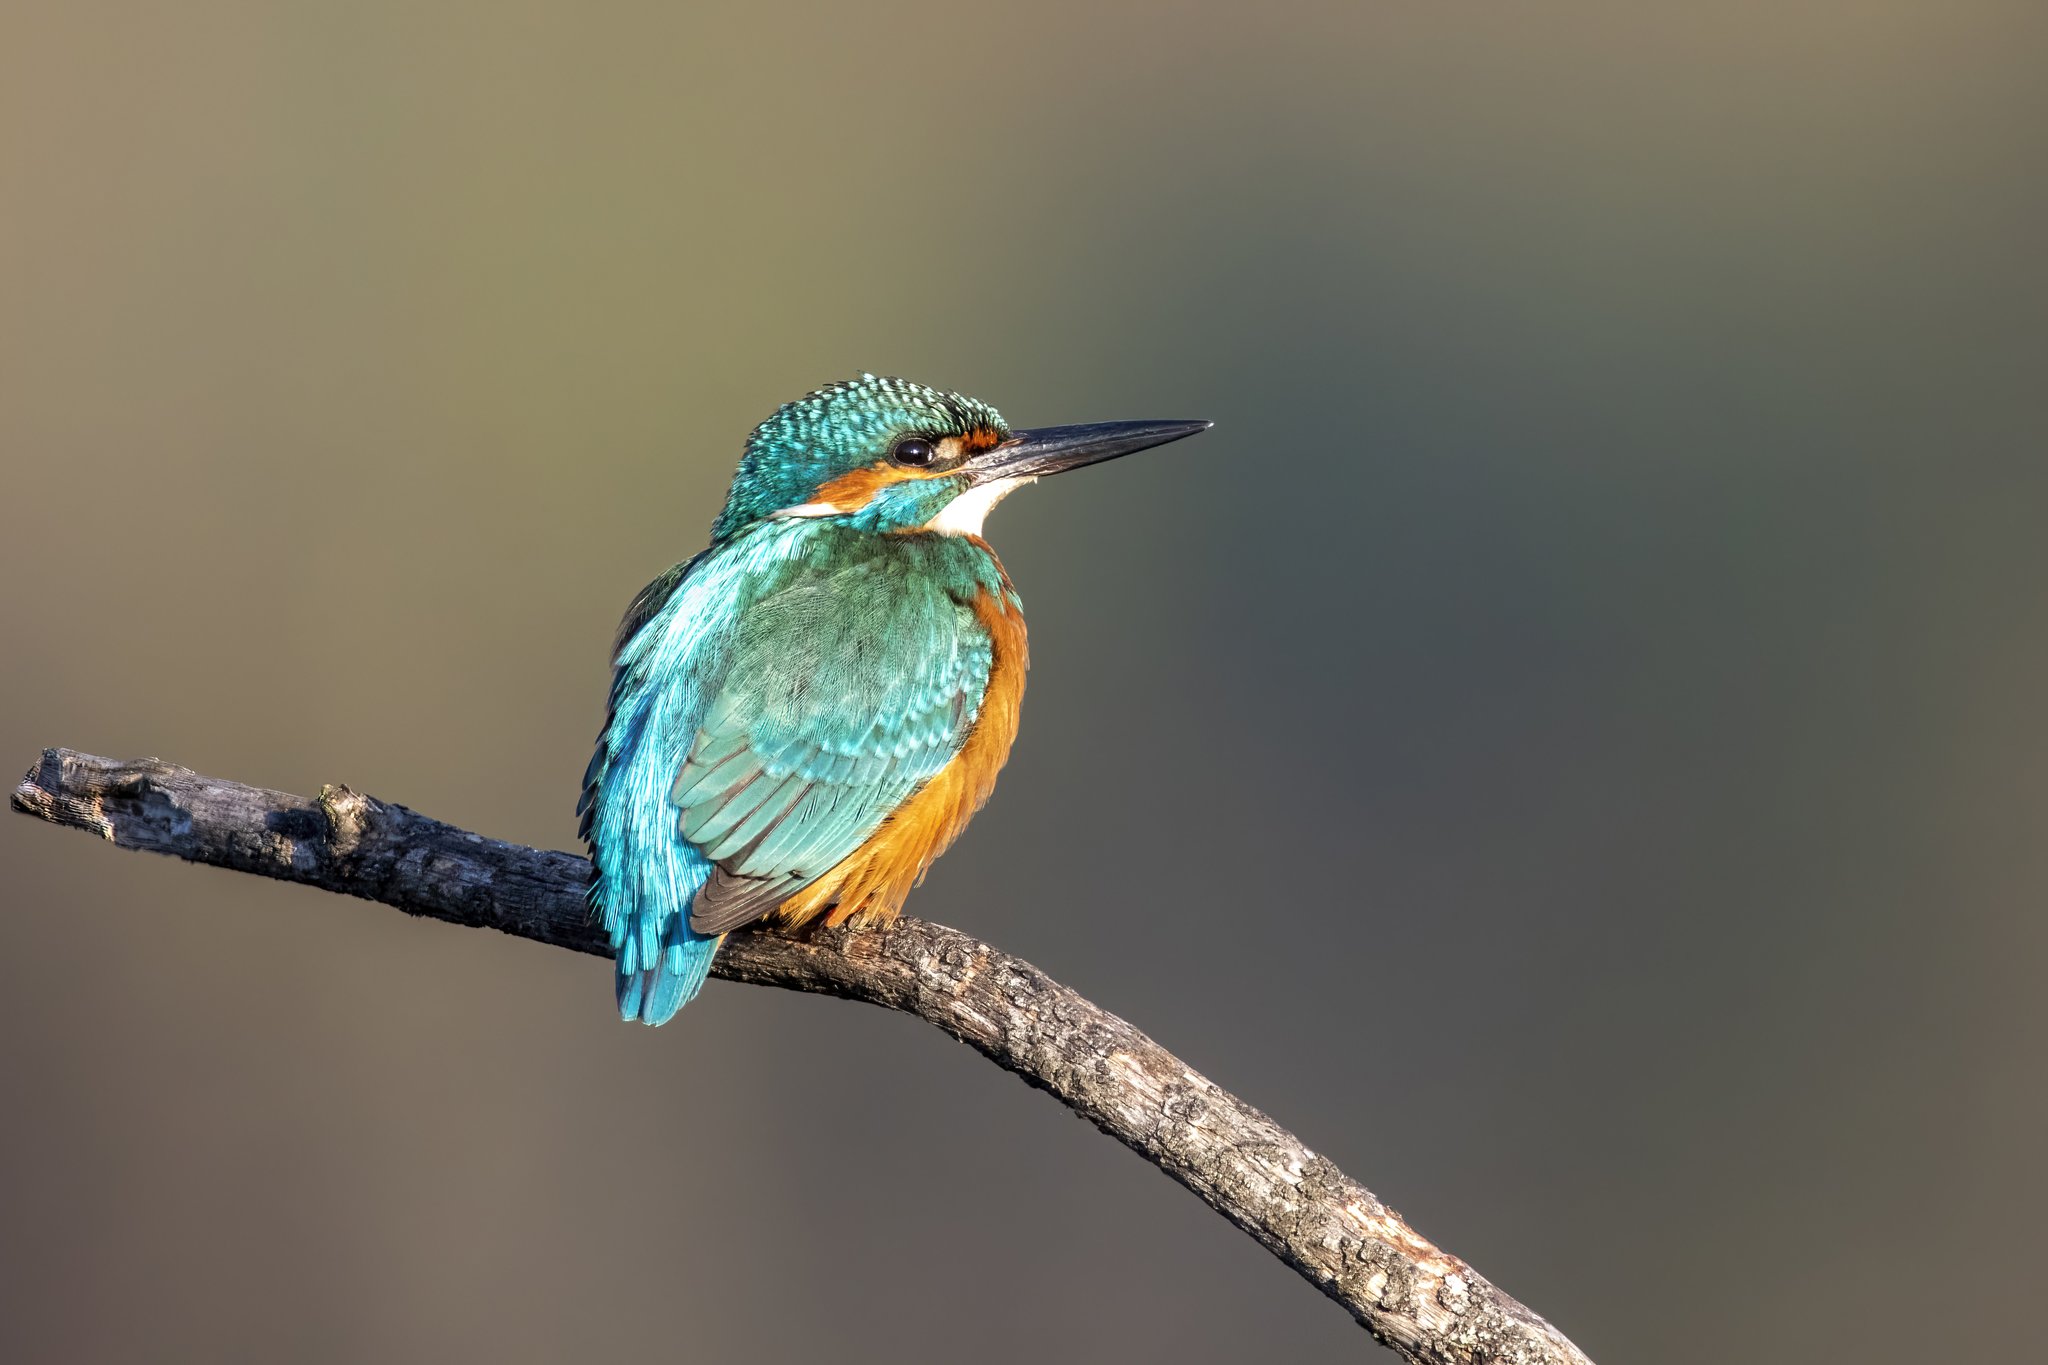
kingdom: Animalia
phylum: Chordata
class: Aves
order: Coraciiformes
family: Alcedinidae
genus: Alcedo
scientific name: Alcedo atthis
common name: Common kingfisher
